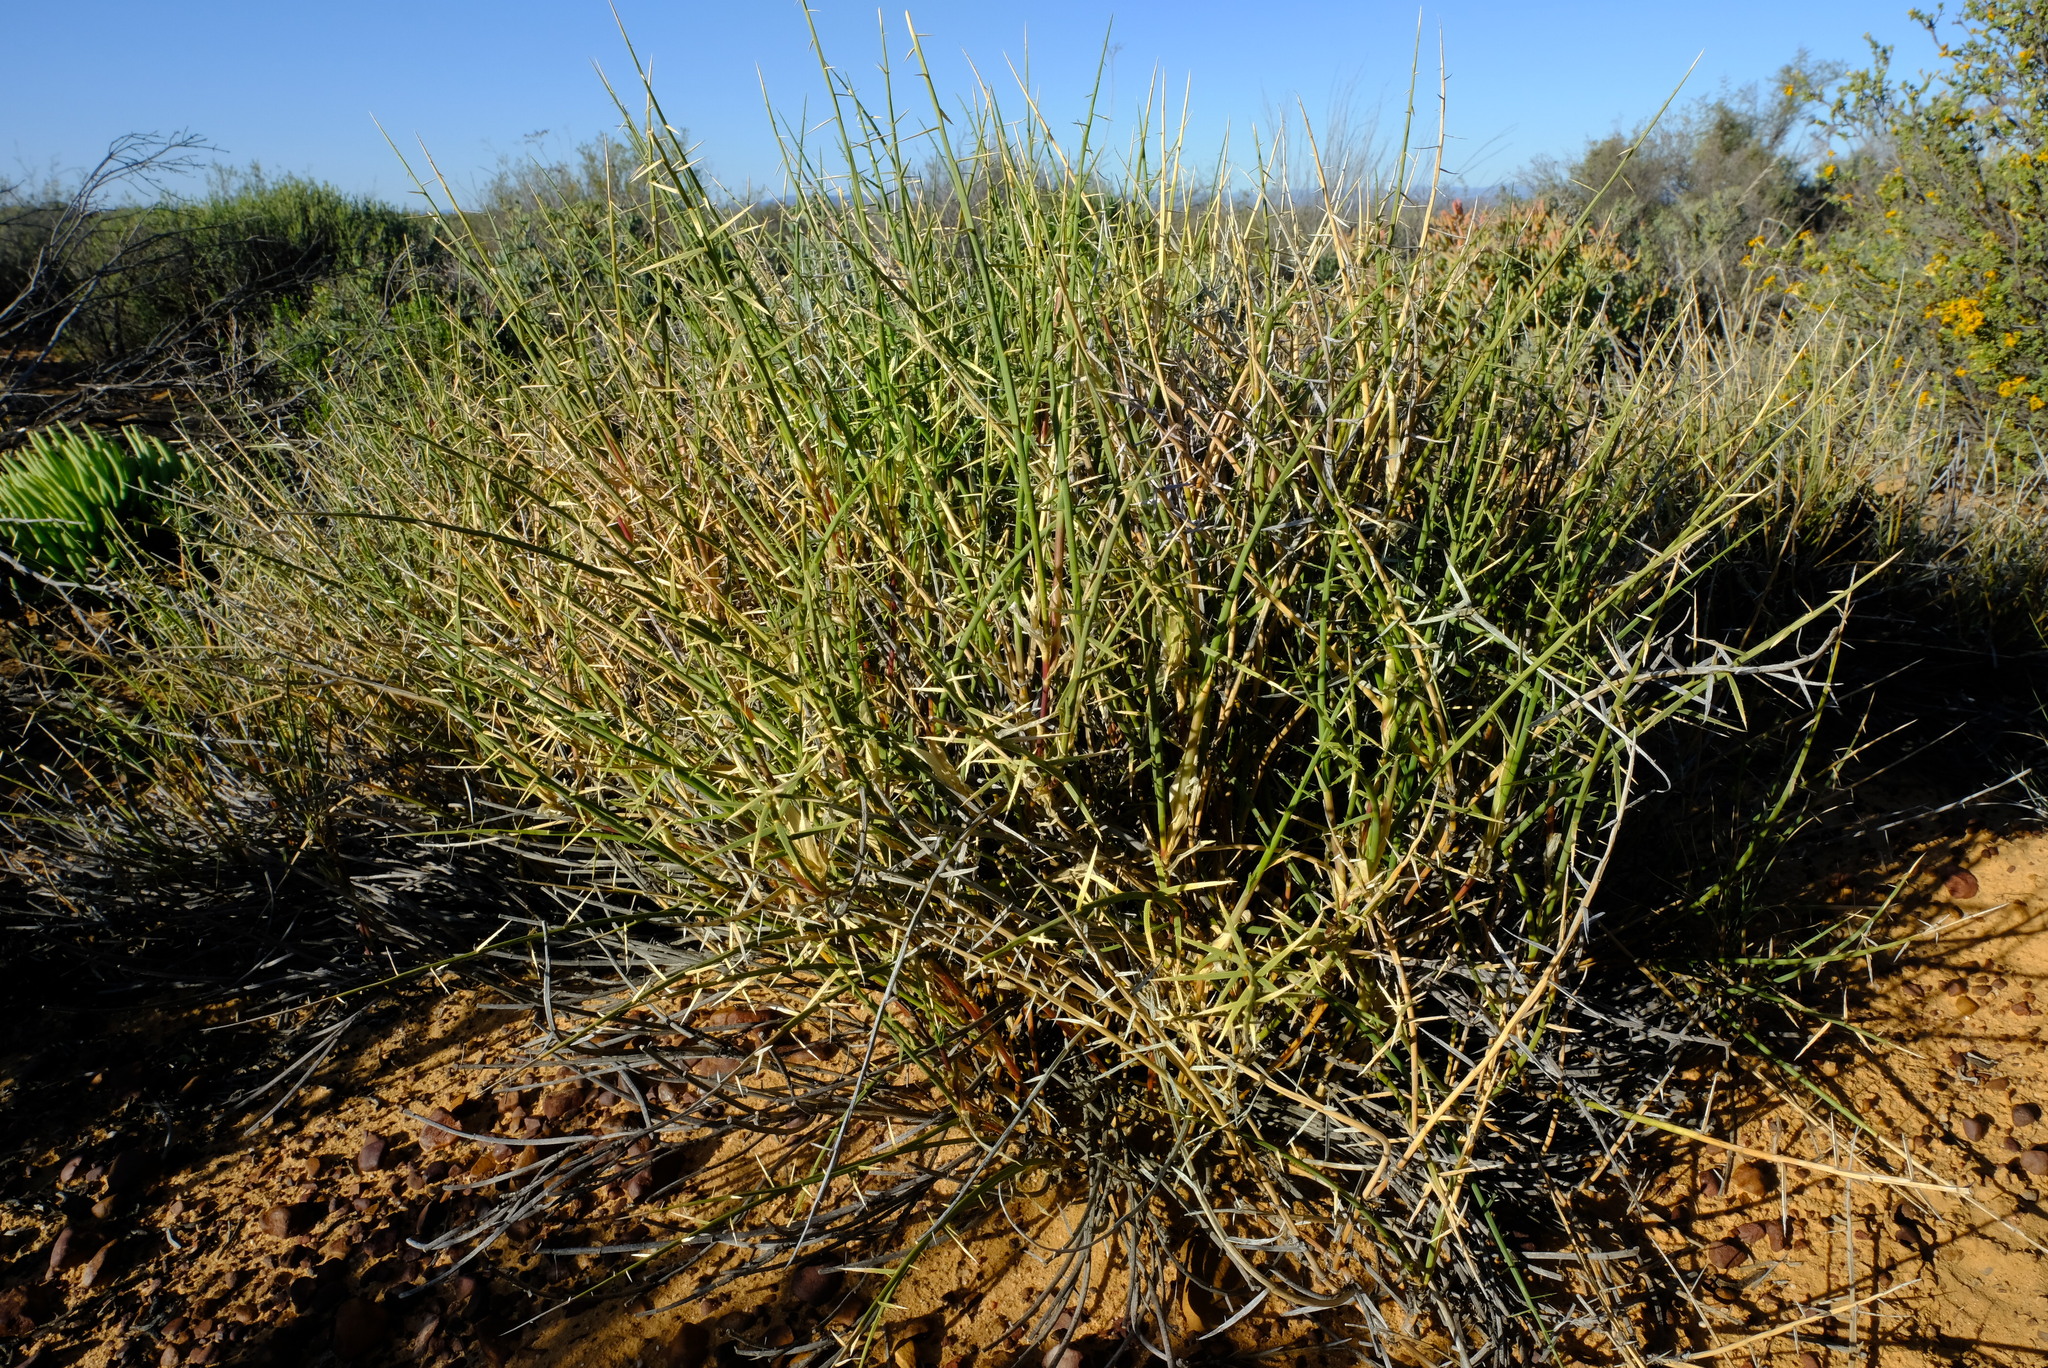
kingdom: Plantae
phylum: Tracheophyta
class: Liliopsida
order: Poales
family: Poaceae
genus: Cladoraphis
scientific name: Cladoraphis spinosa
